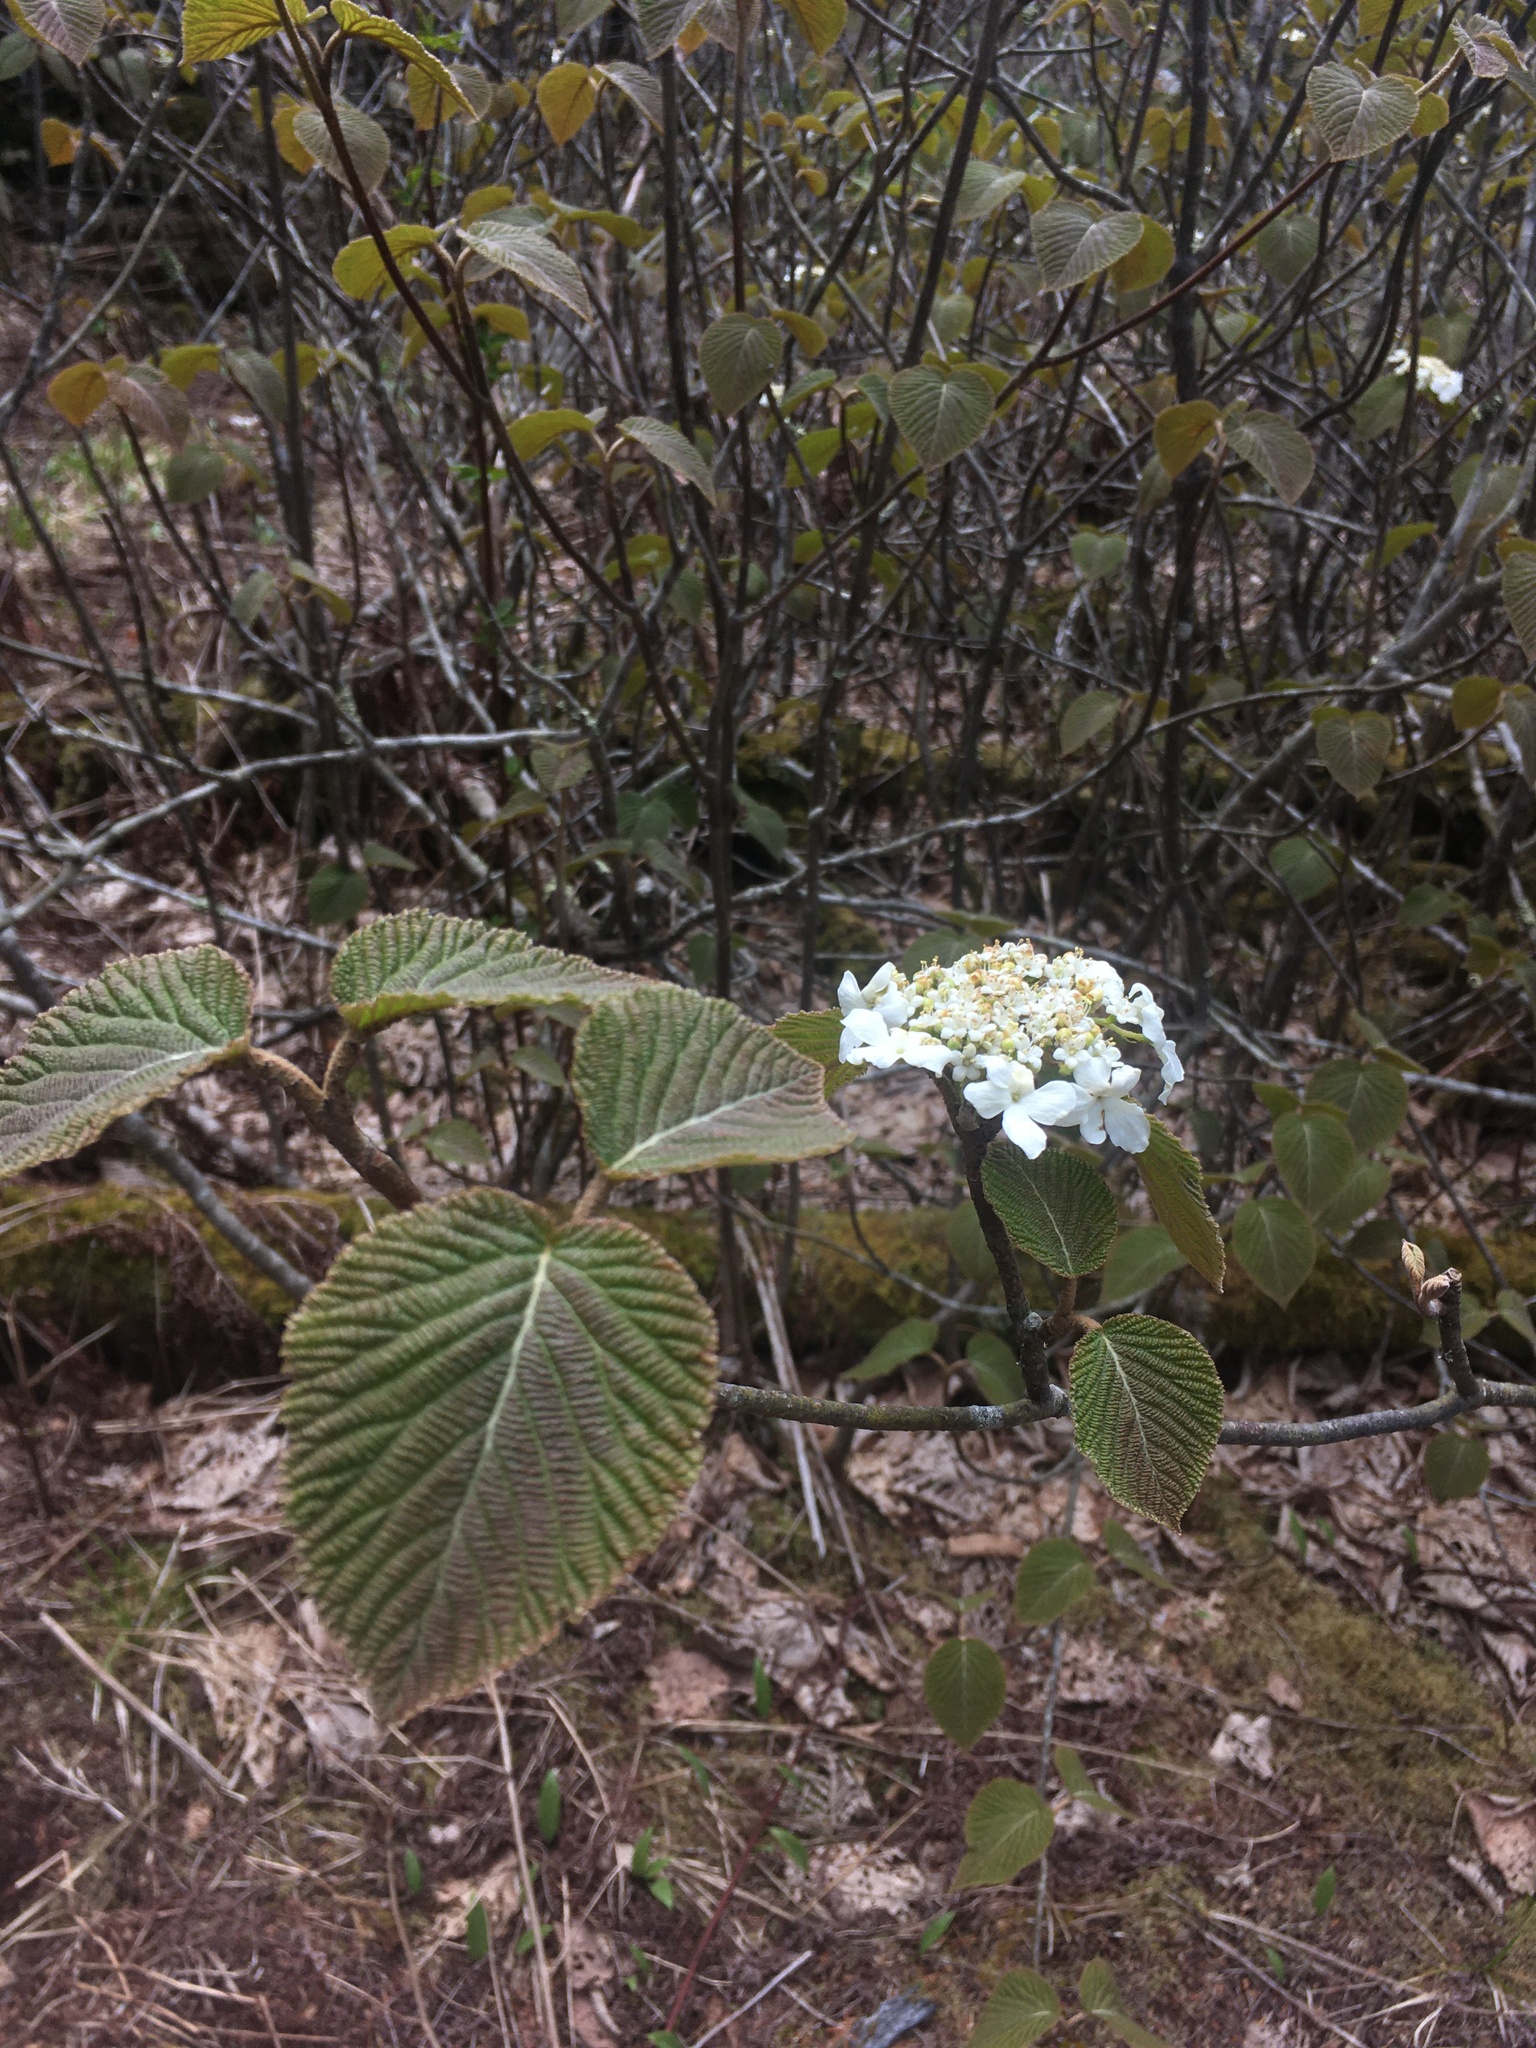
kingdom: Plantae
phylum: Tracheophyta
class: Magnoliopsida
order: Dipsacales
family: Viburnaceae
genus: Viburnum
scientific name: Viburnum lantanoides
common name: Hobblebush
